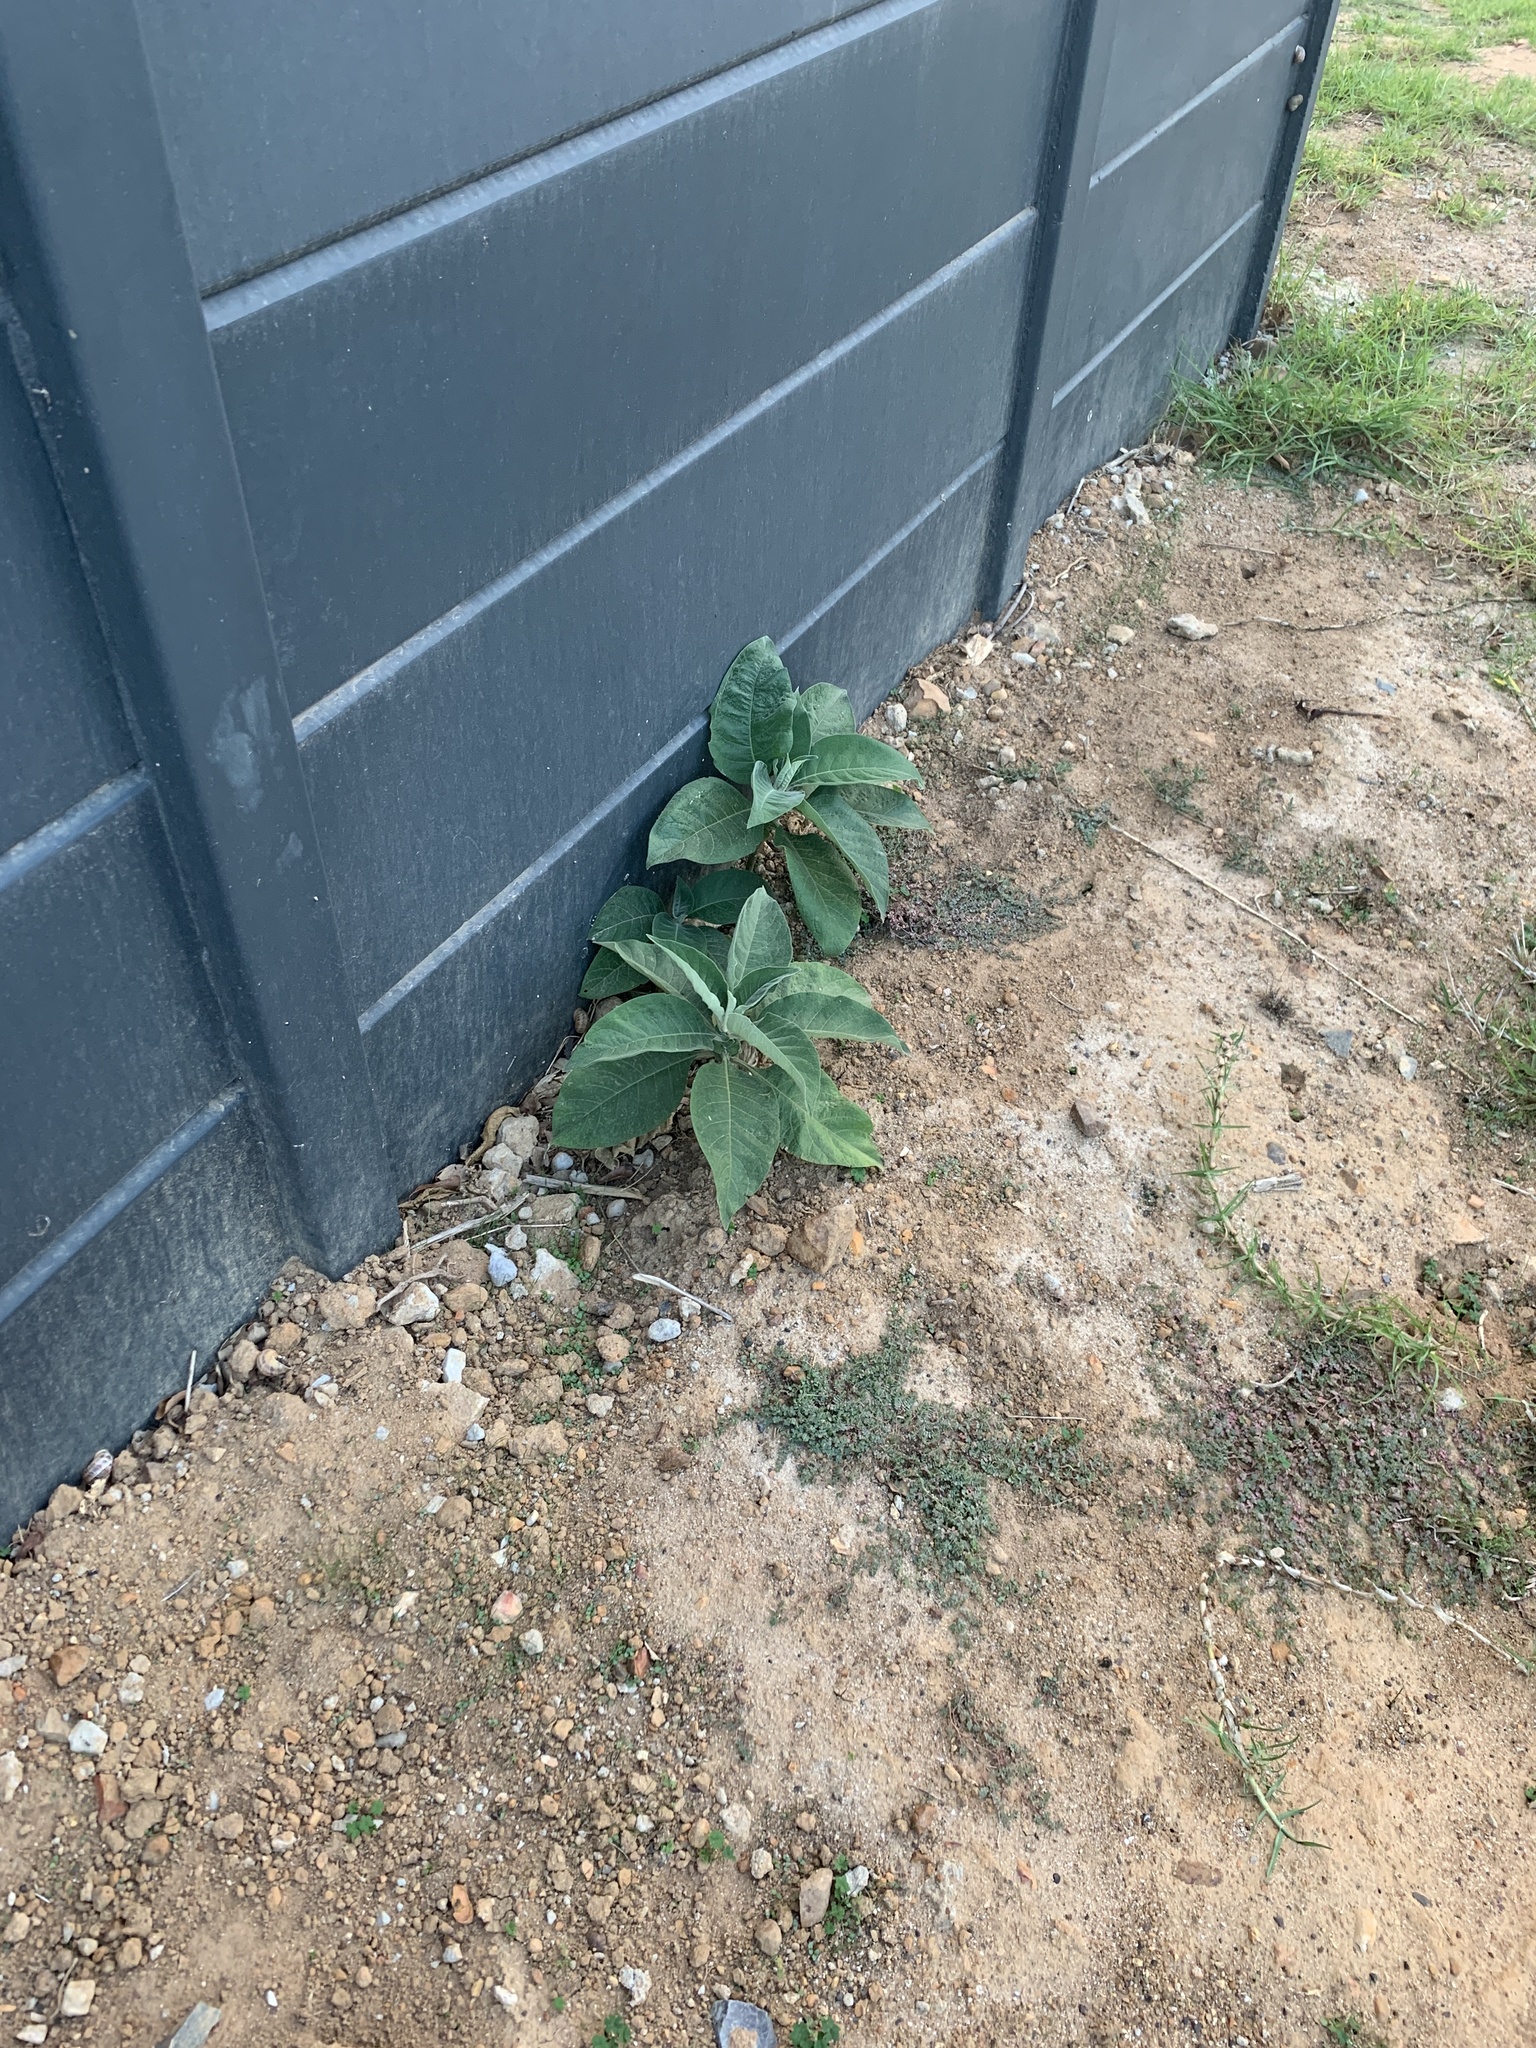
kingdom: Plantae
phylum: Tracheophyta
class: Magnoliopsida
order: Solanales
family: Solanaceae
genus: Solanum
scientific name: Solanum mauritianum
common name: Earleaf nightshade
